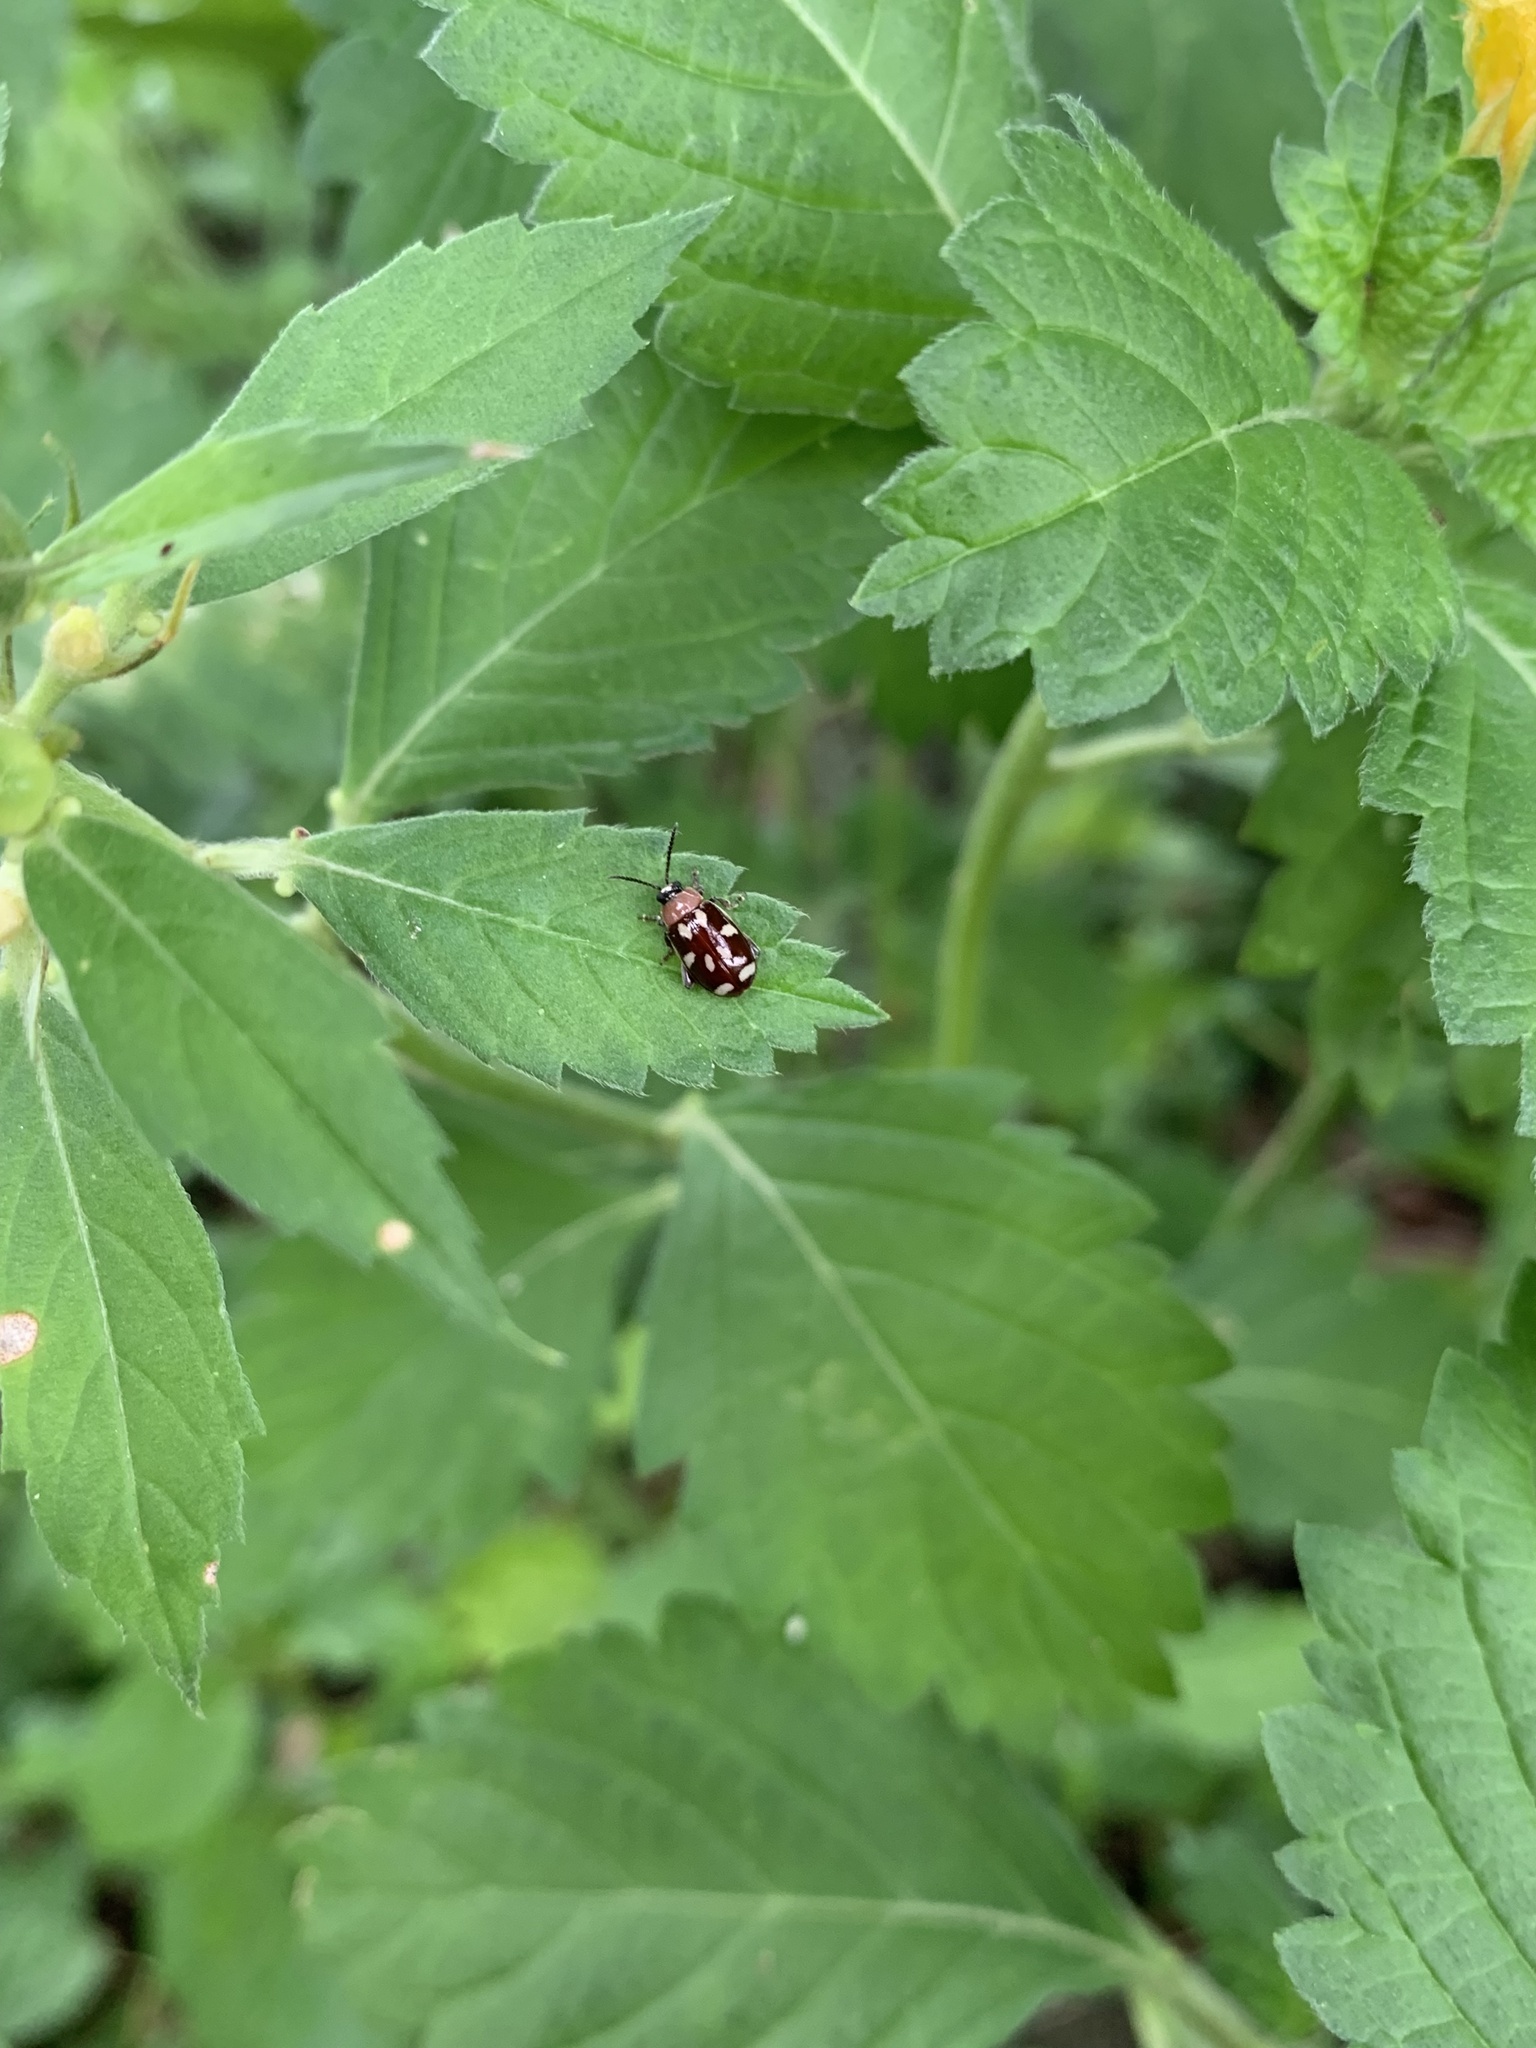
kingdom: Animalia
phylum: Arthropoda
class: Insecta
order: Coleoptera
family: Chrysomelidae
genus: Alagoasa
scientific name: Alagoasa trifasciata
